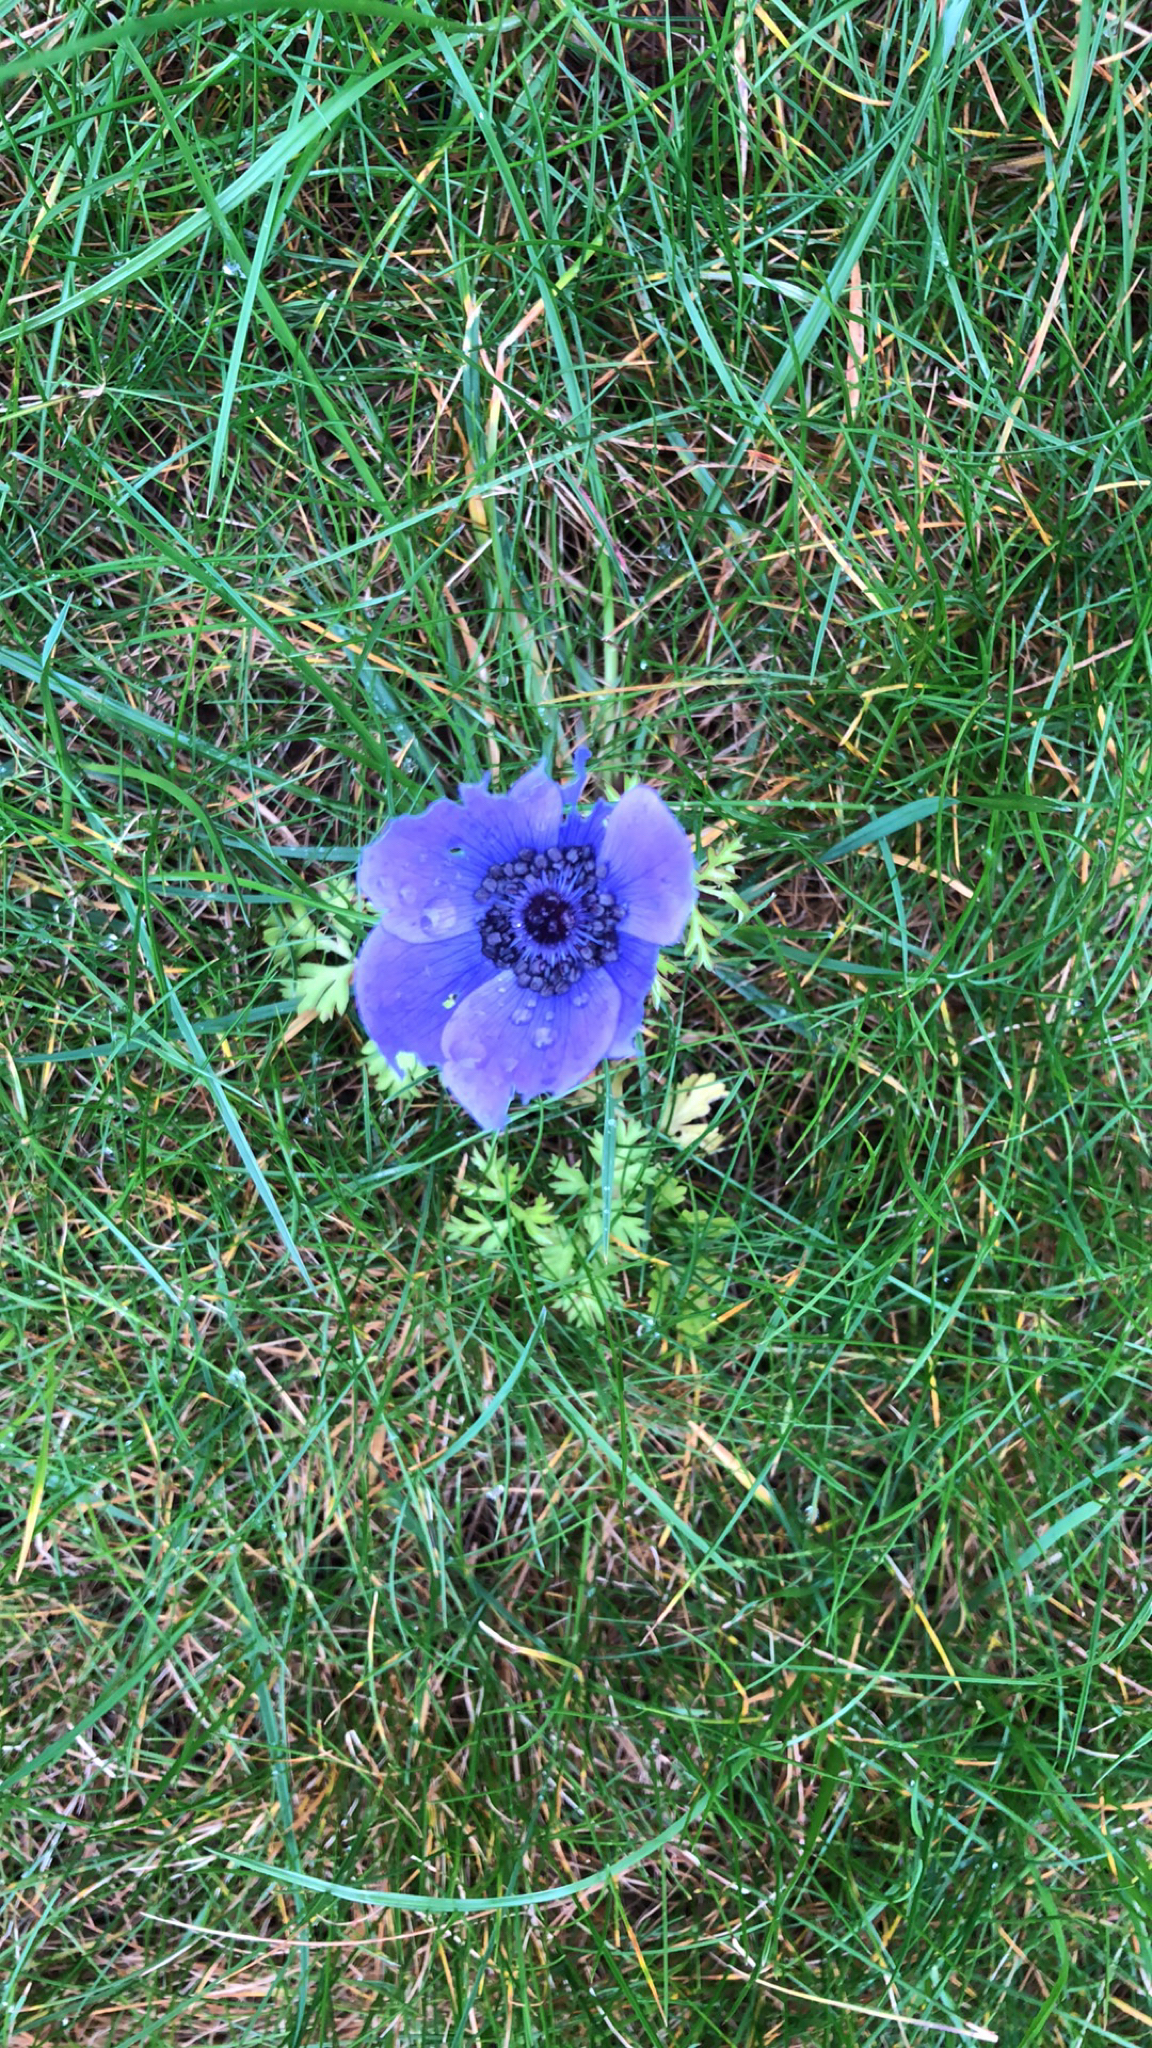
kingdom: Plantae
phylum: Tracheophyta
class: Magnoliopsida
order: Ranunculales
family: Ranunculaceae
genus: Anemone
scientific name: Anemone coronaria
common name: Poppy anemone
